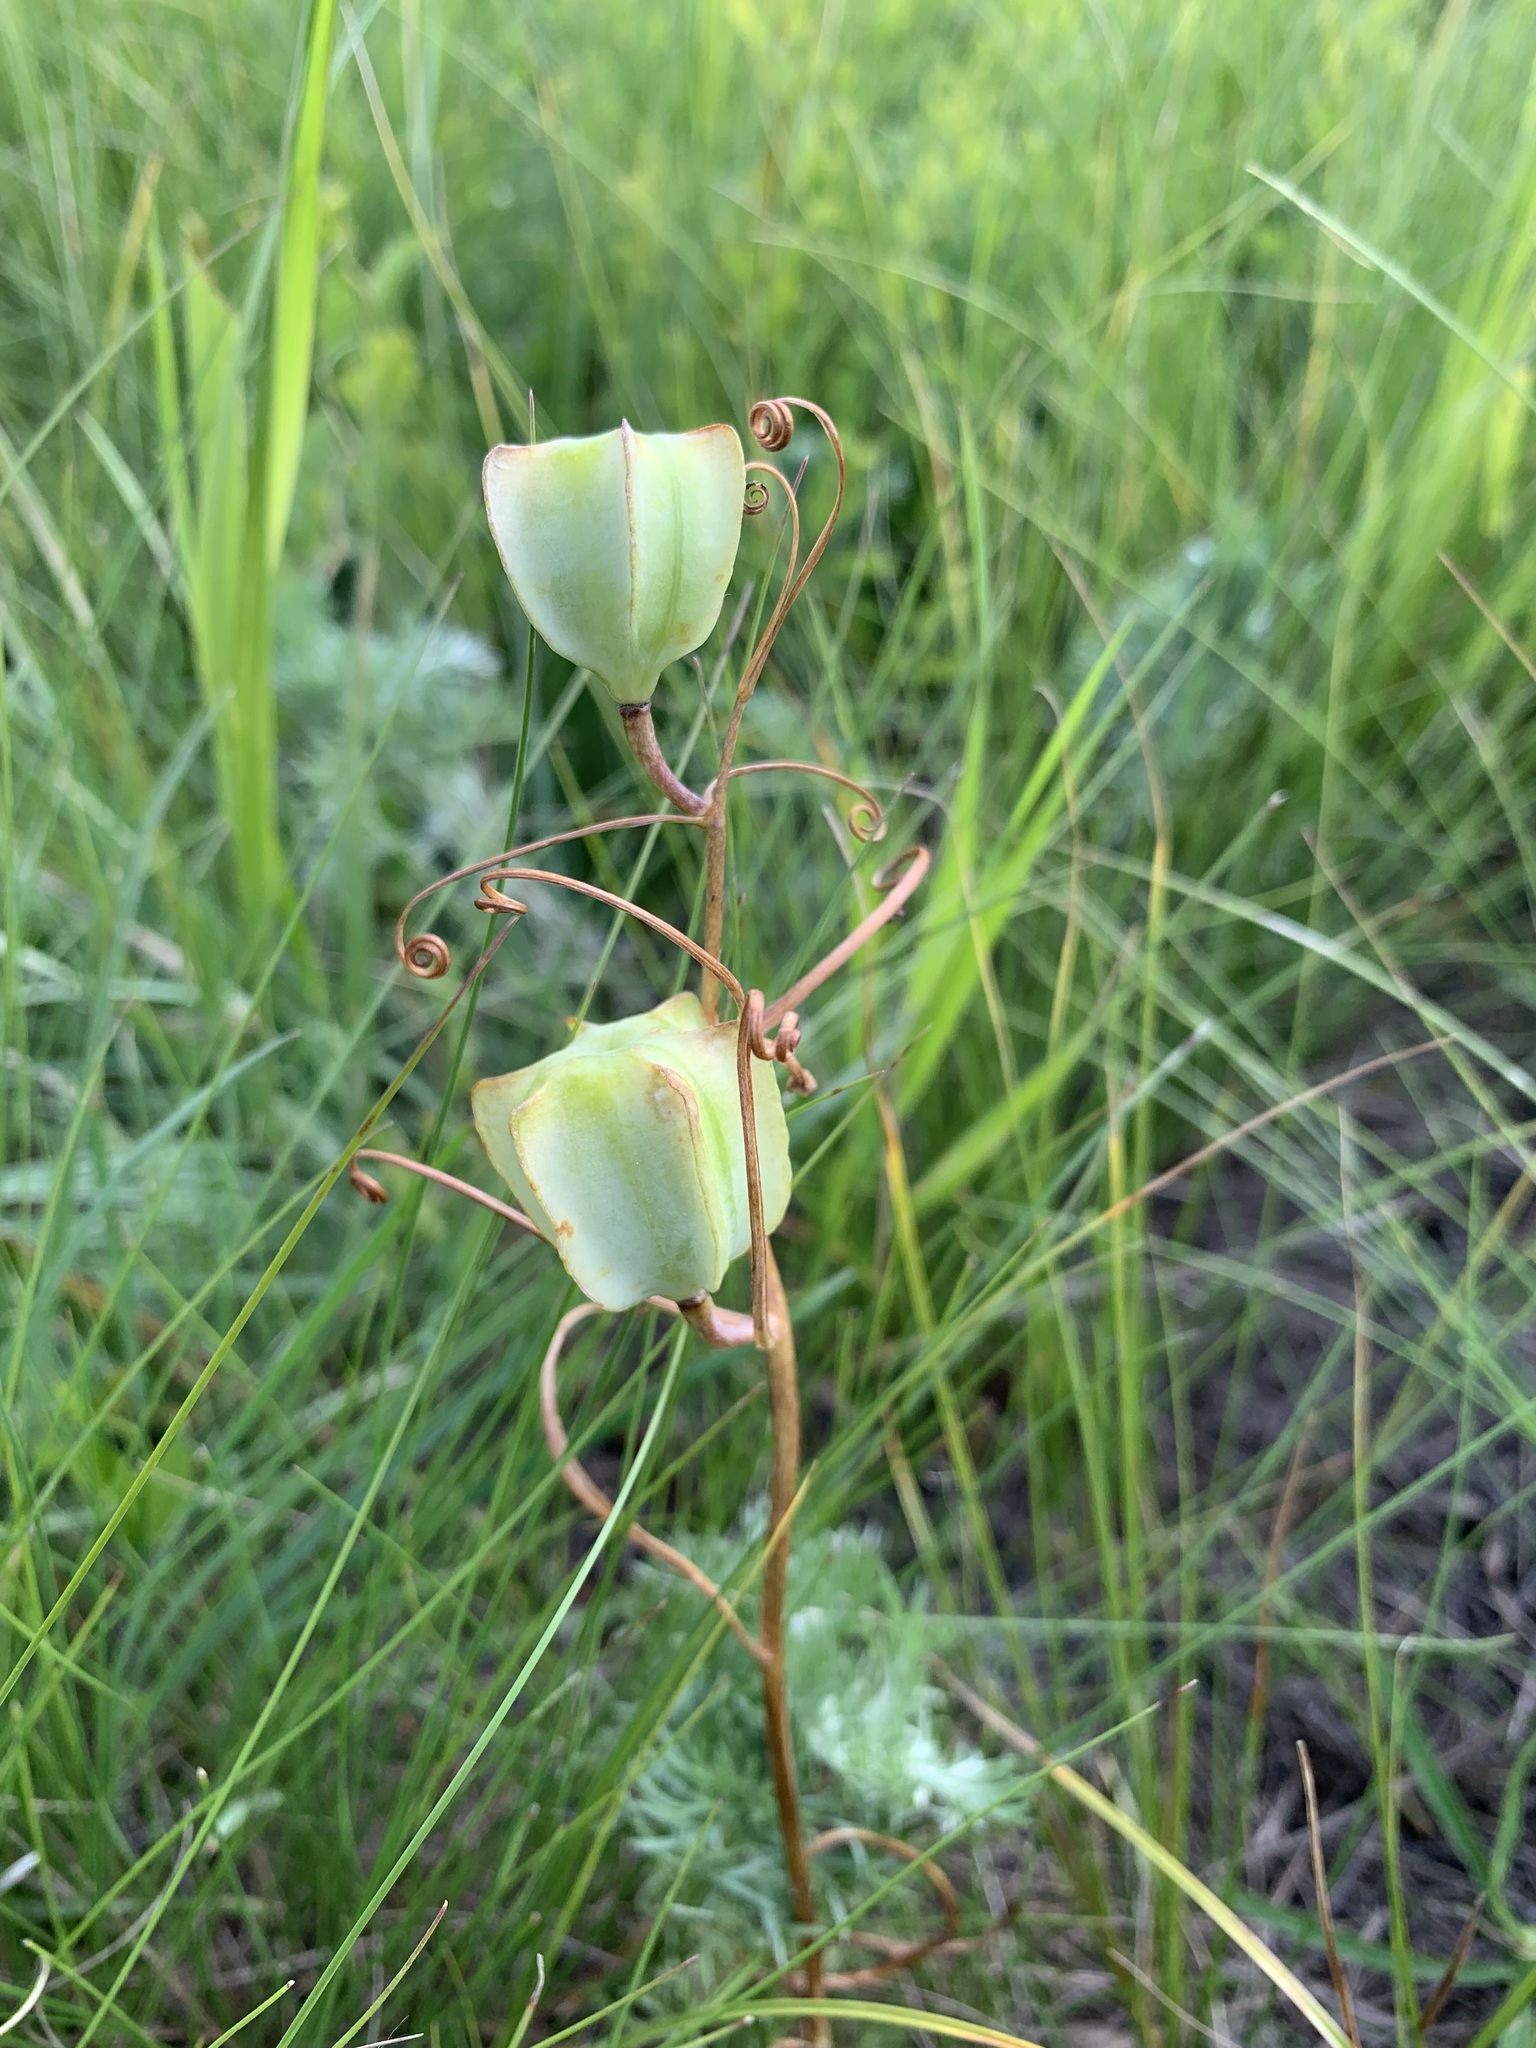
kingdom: Plantae
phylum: Tracheophyta
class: Liliopsida
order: Liliales
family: Liliaceae
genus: Fritillaria
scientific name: Fritillaria ruthenica
